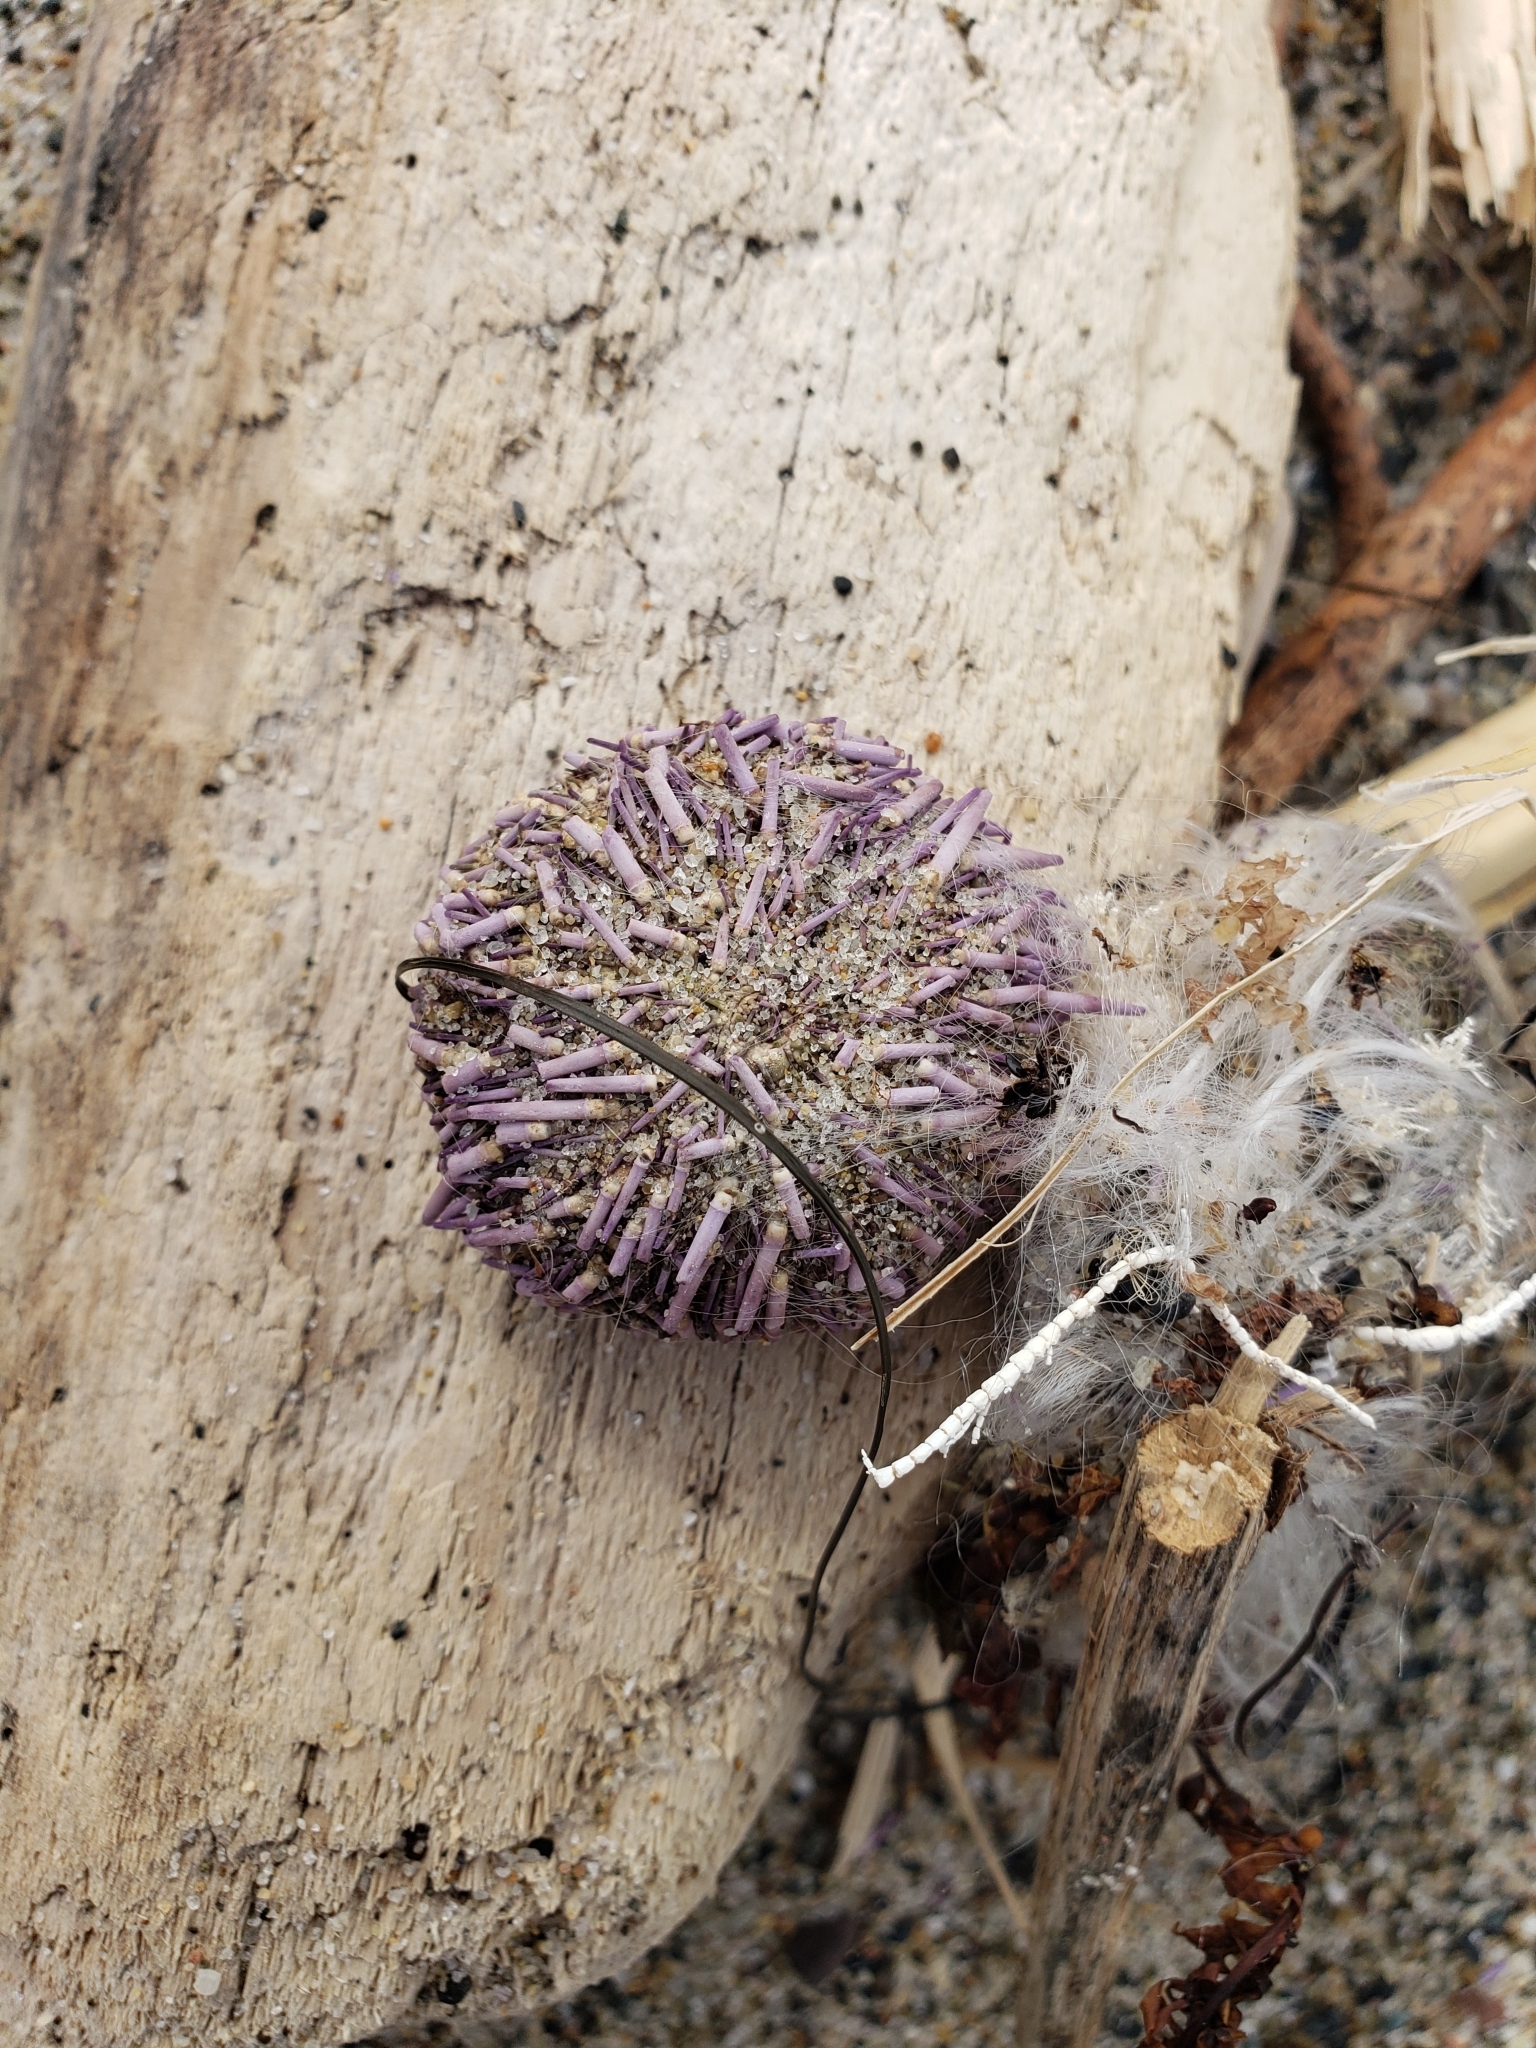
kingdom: Animalia
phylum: Echinodermata
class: Echinoidea
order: Camarodonta
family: Strongylocentrotidae
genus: Strongylocentrotus
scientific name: Strongylocentrotus purpuratus
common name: Purple sea urchin
